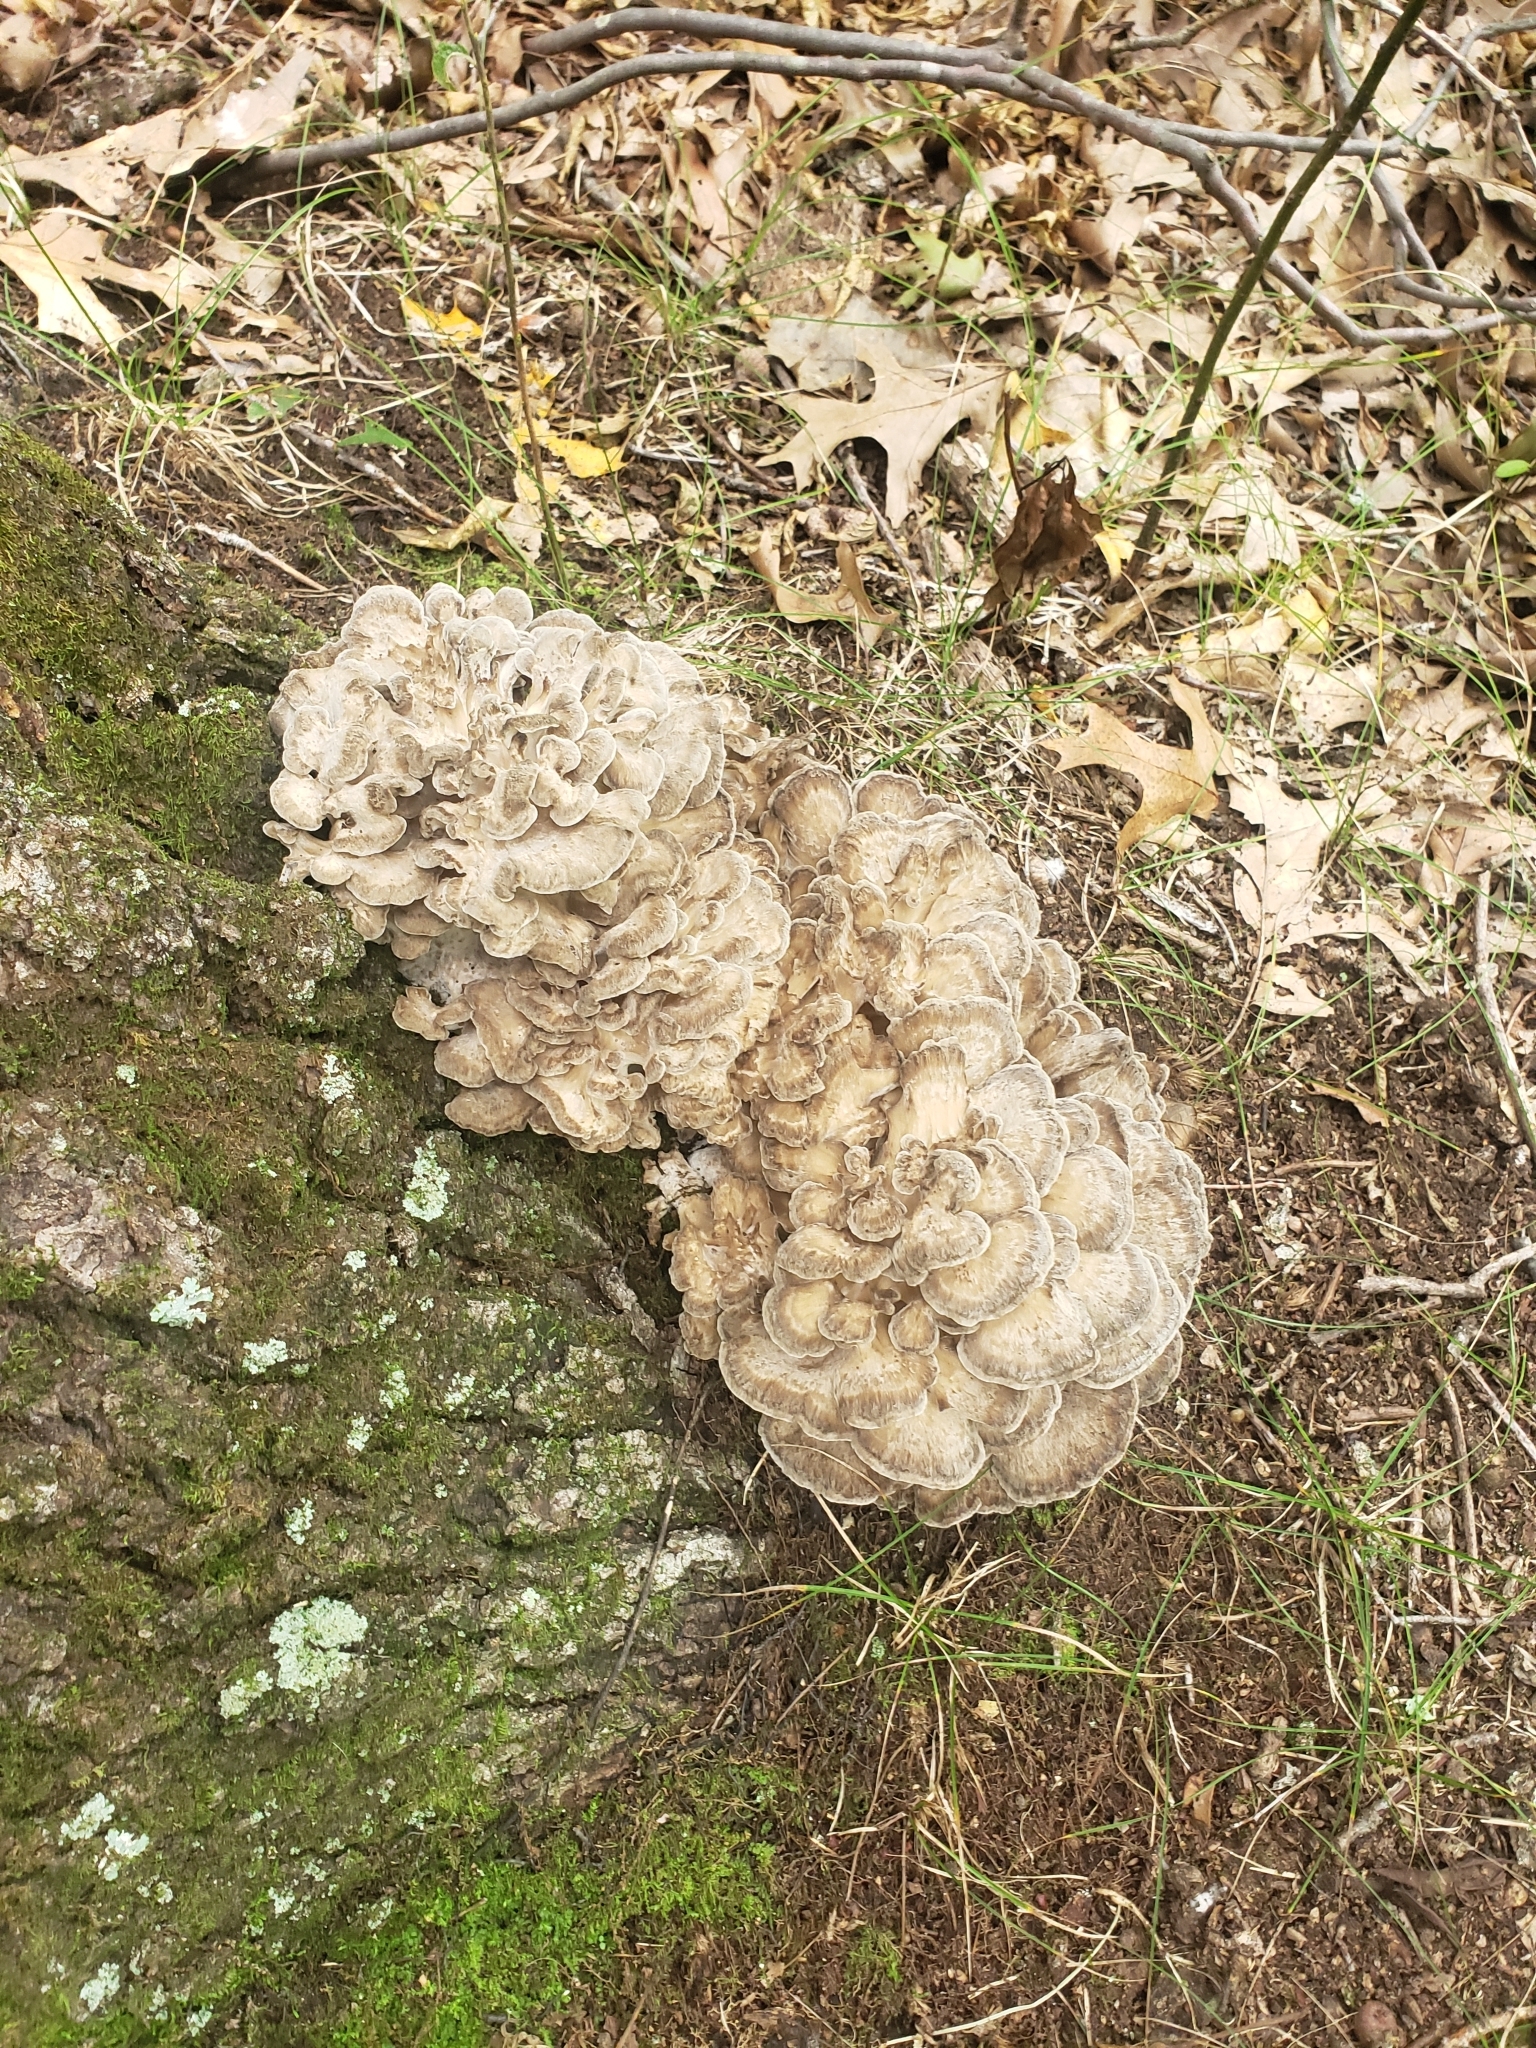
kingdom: Fungi
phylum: Basidiomycota
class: Agaricomycetes
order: Polyporales
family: Grifolaceae
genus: Grifola
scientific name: Grifola frondosa
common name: Hen of the woods
